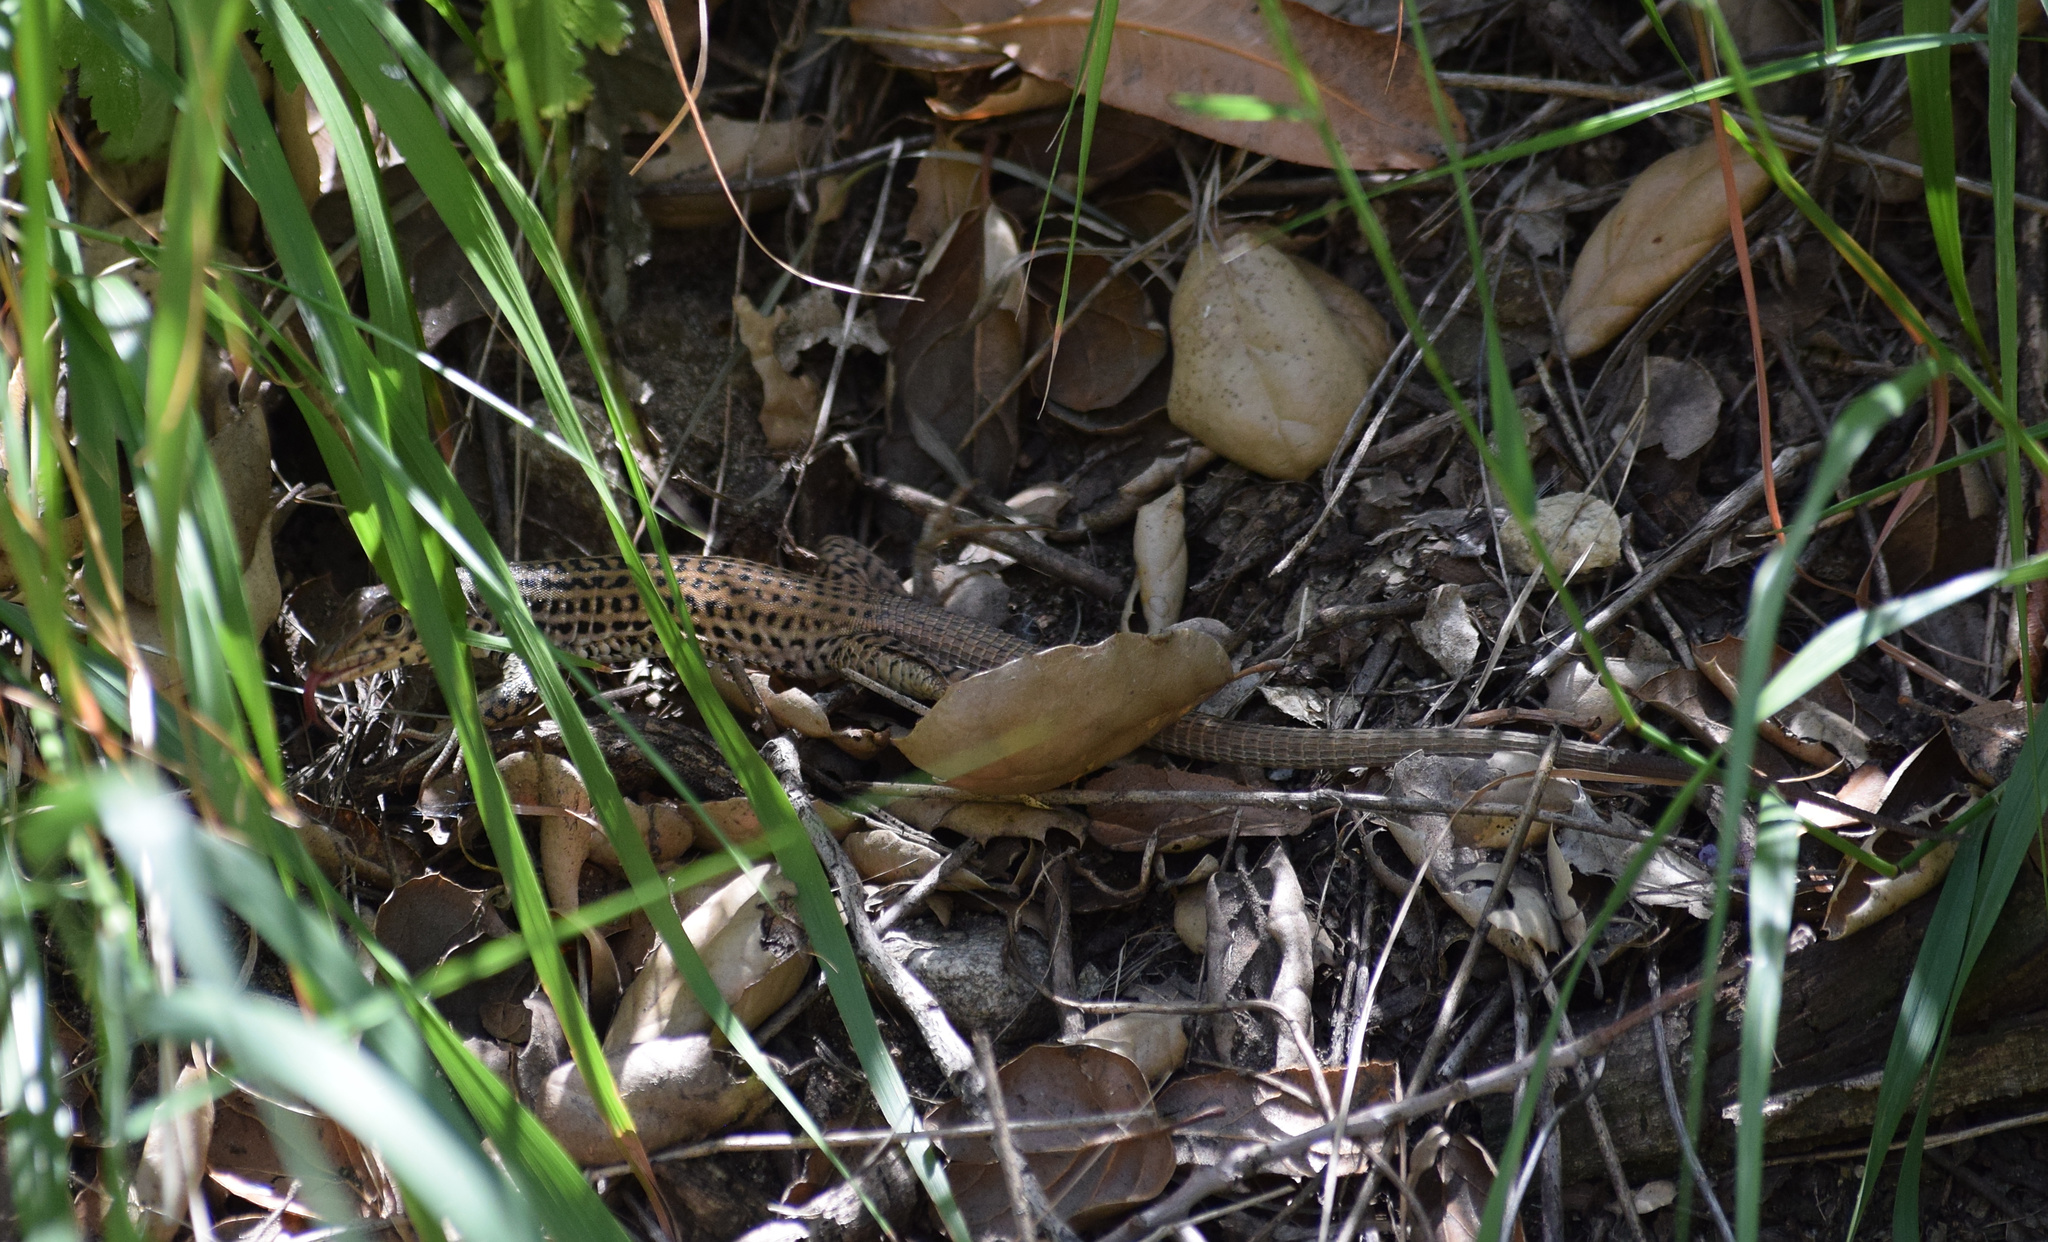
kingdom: Animalia
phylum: Chordata
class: Squamata
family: Teiidae
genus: Aspidoscelis
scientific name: Aspidoscelis tigris
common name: Tiger whiptail
